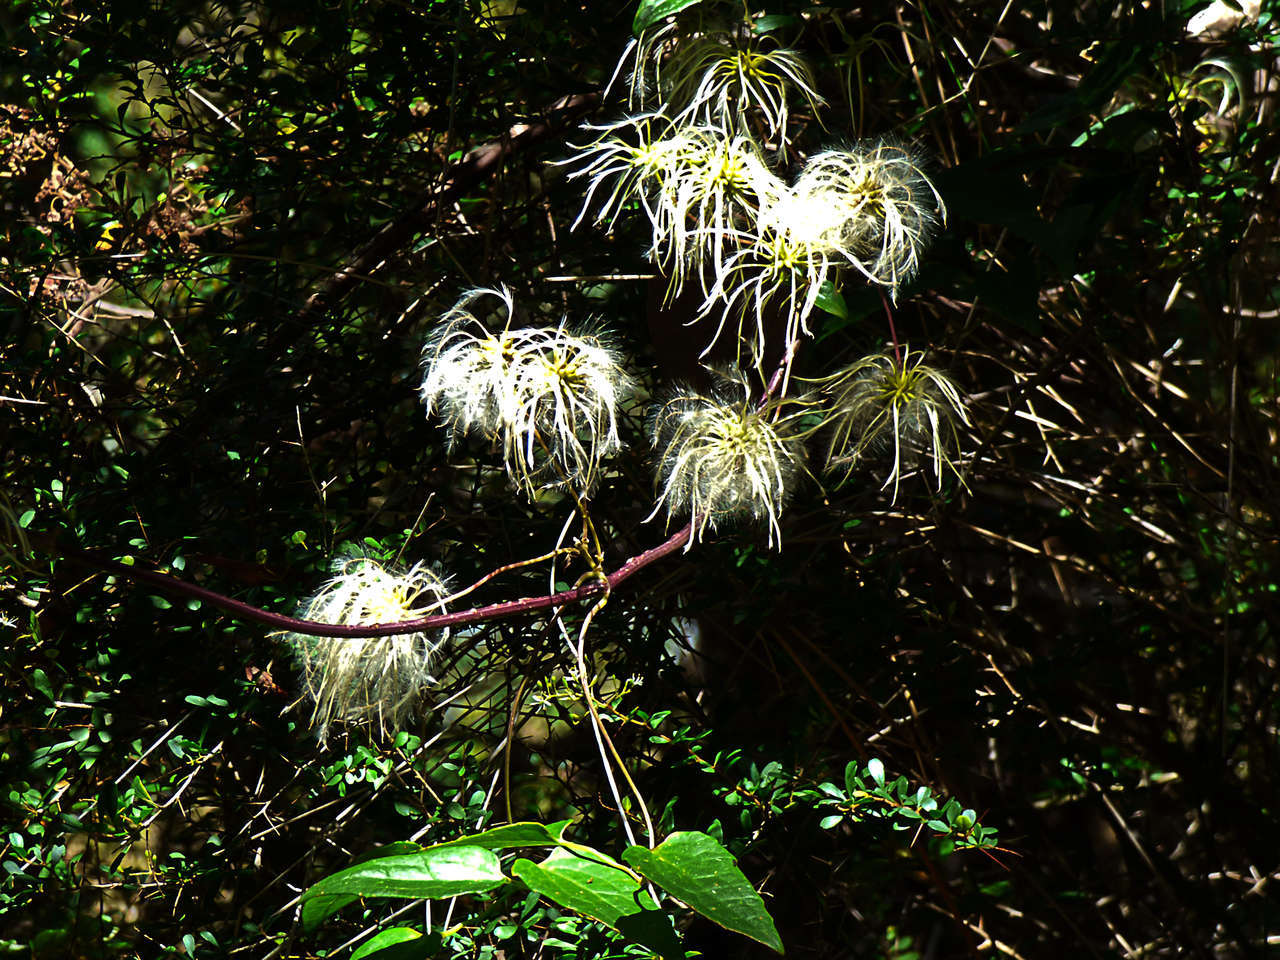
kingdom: Plantae
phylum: Tracheophyta
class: Magnoliopsida
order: Ranunculales
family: Ranunculaceae
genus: Clematis
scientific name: Clematis aristata
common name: Mountain clematis
